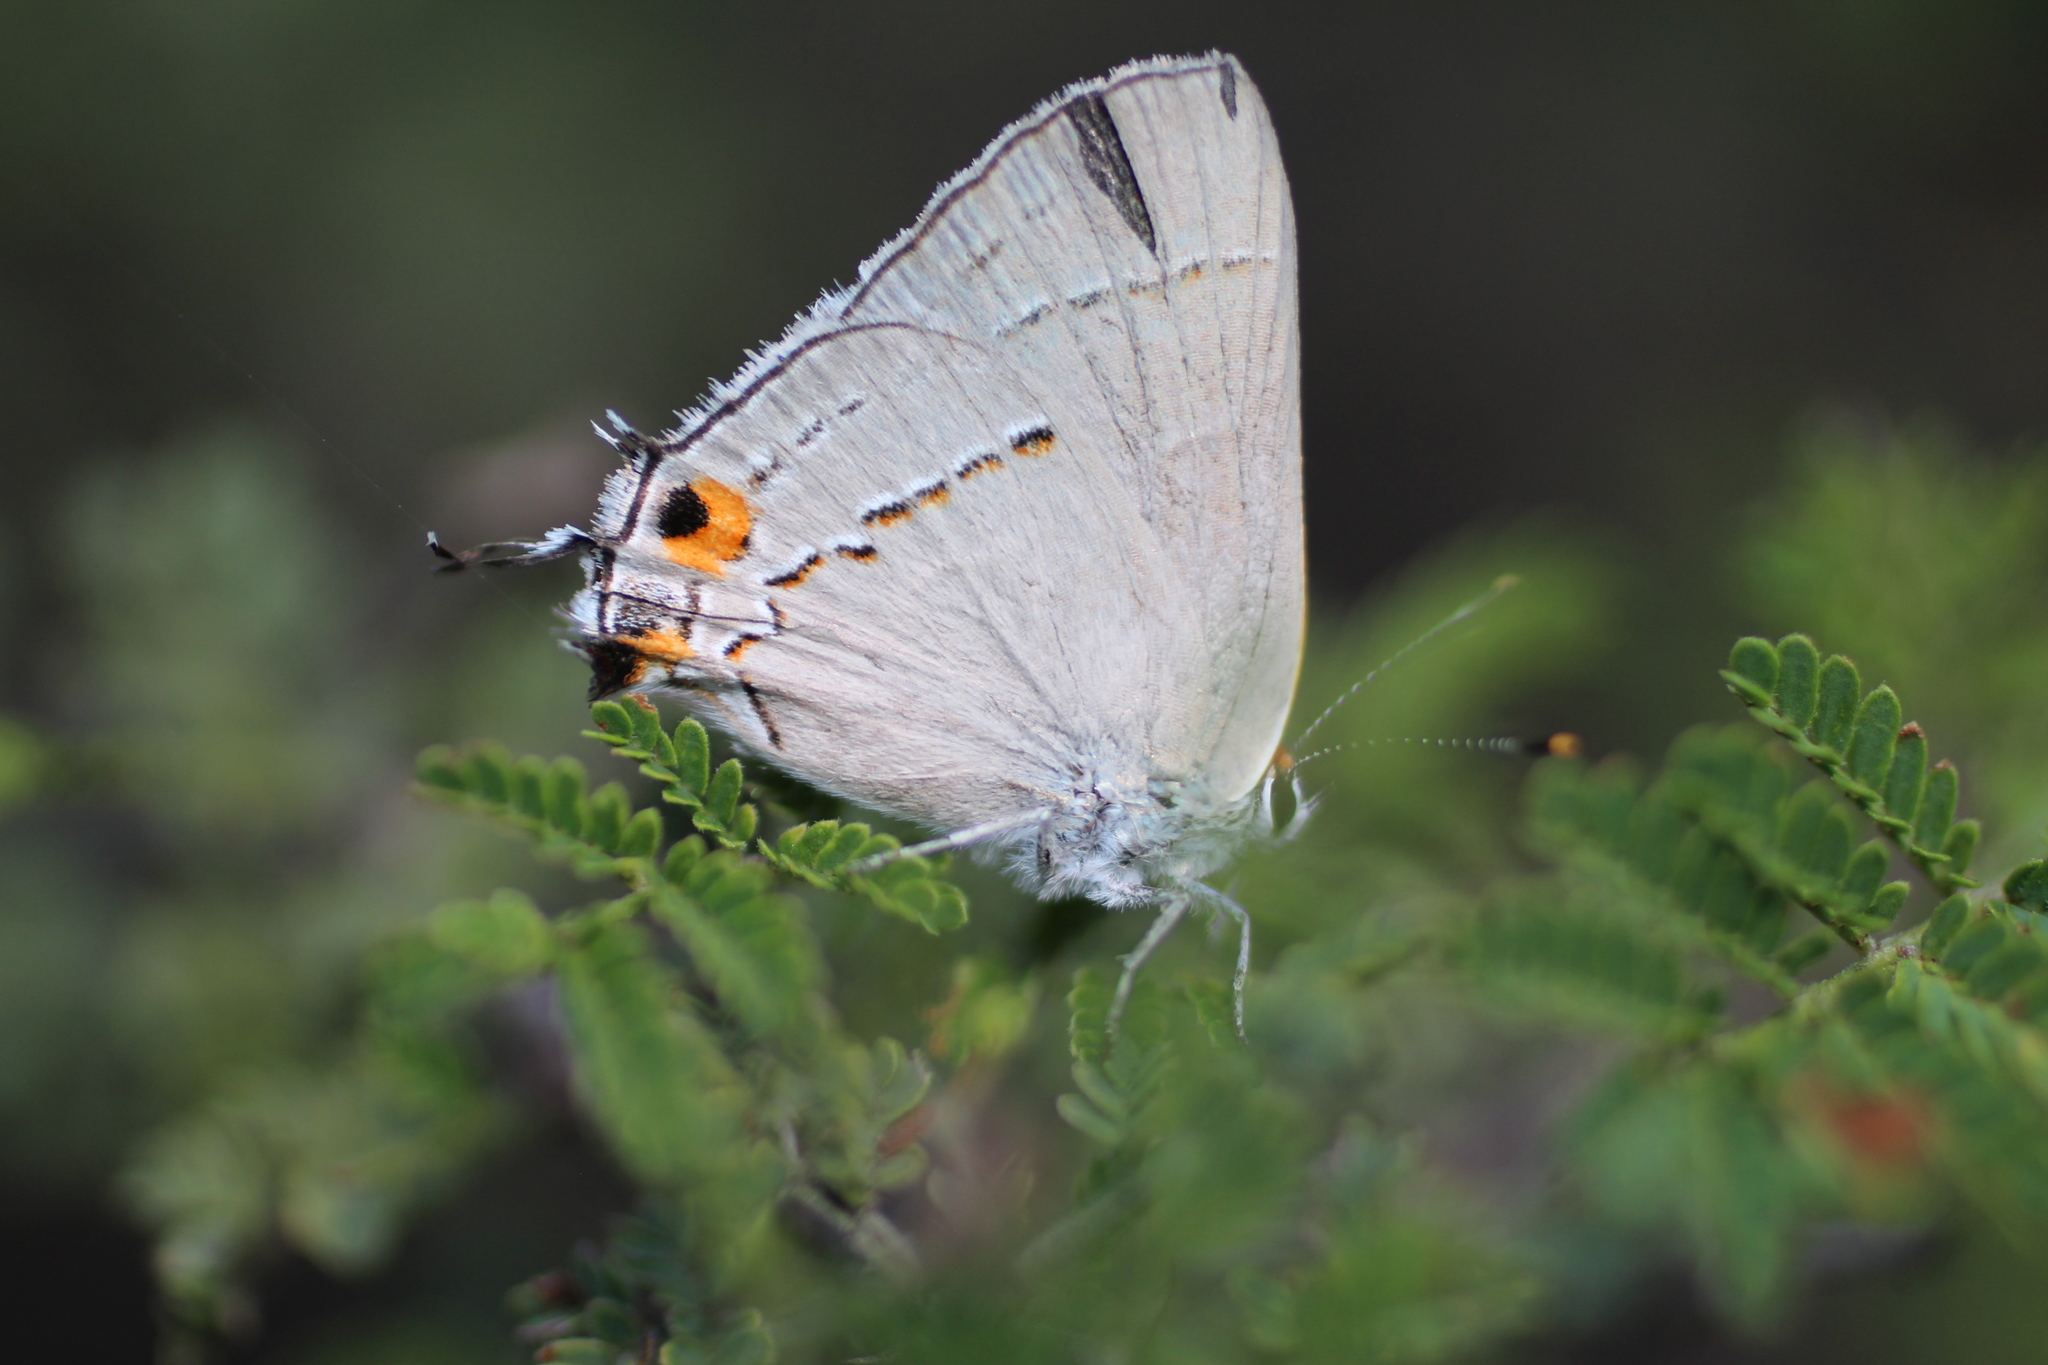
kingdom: Animalia
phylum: Arthropoda
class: Insecta
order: Lepidoptera
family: Lycaenidae
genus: Strymon
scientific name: Strymon melinus
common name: Gray hairstreak
